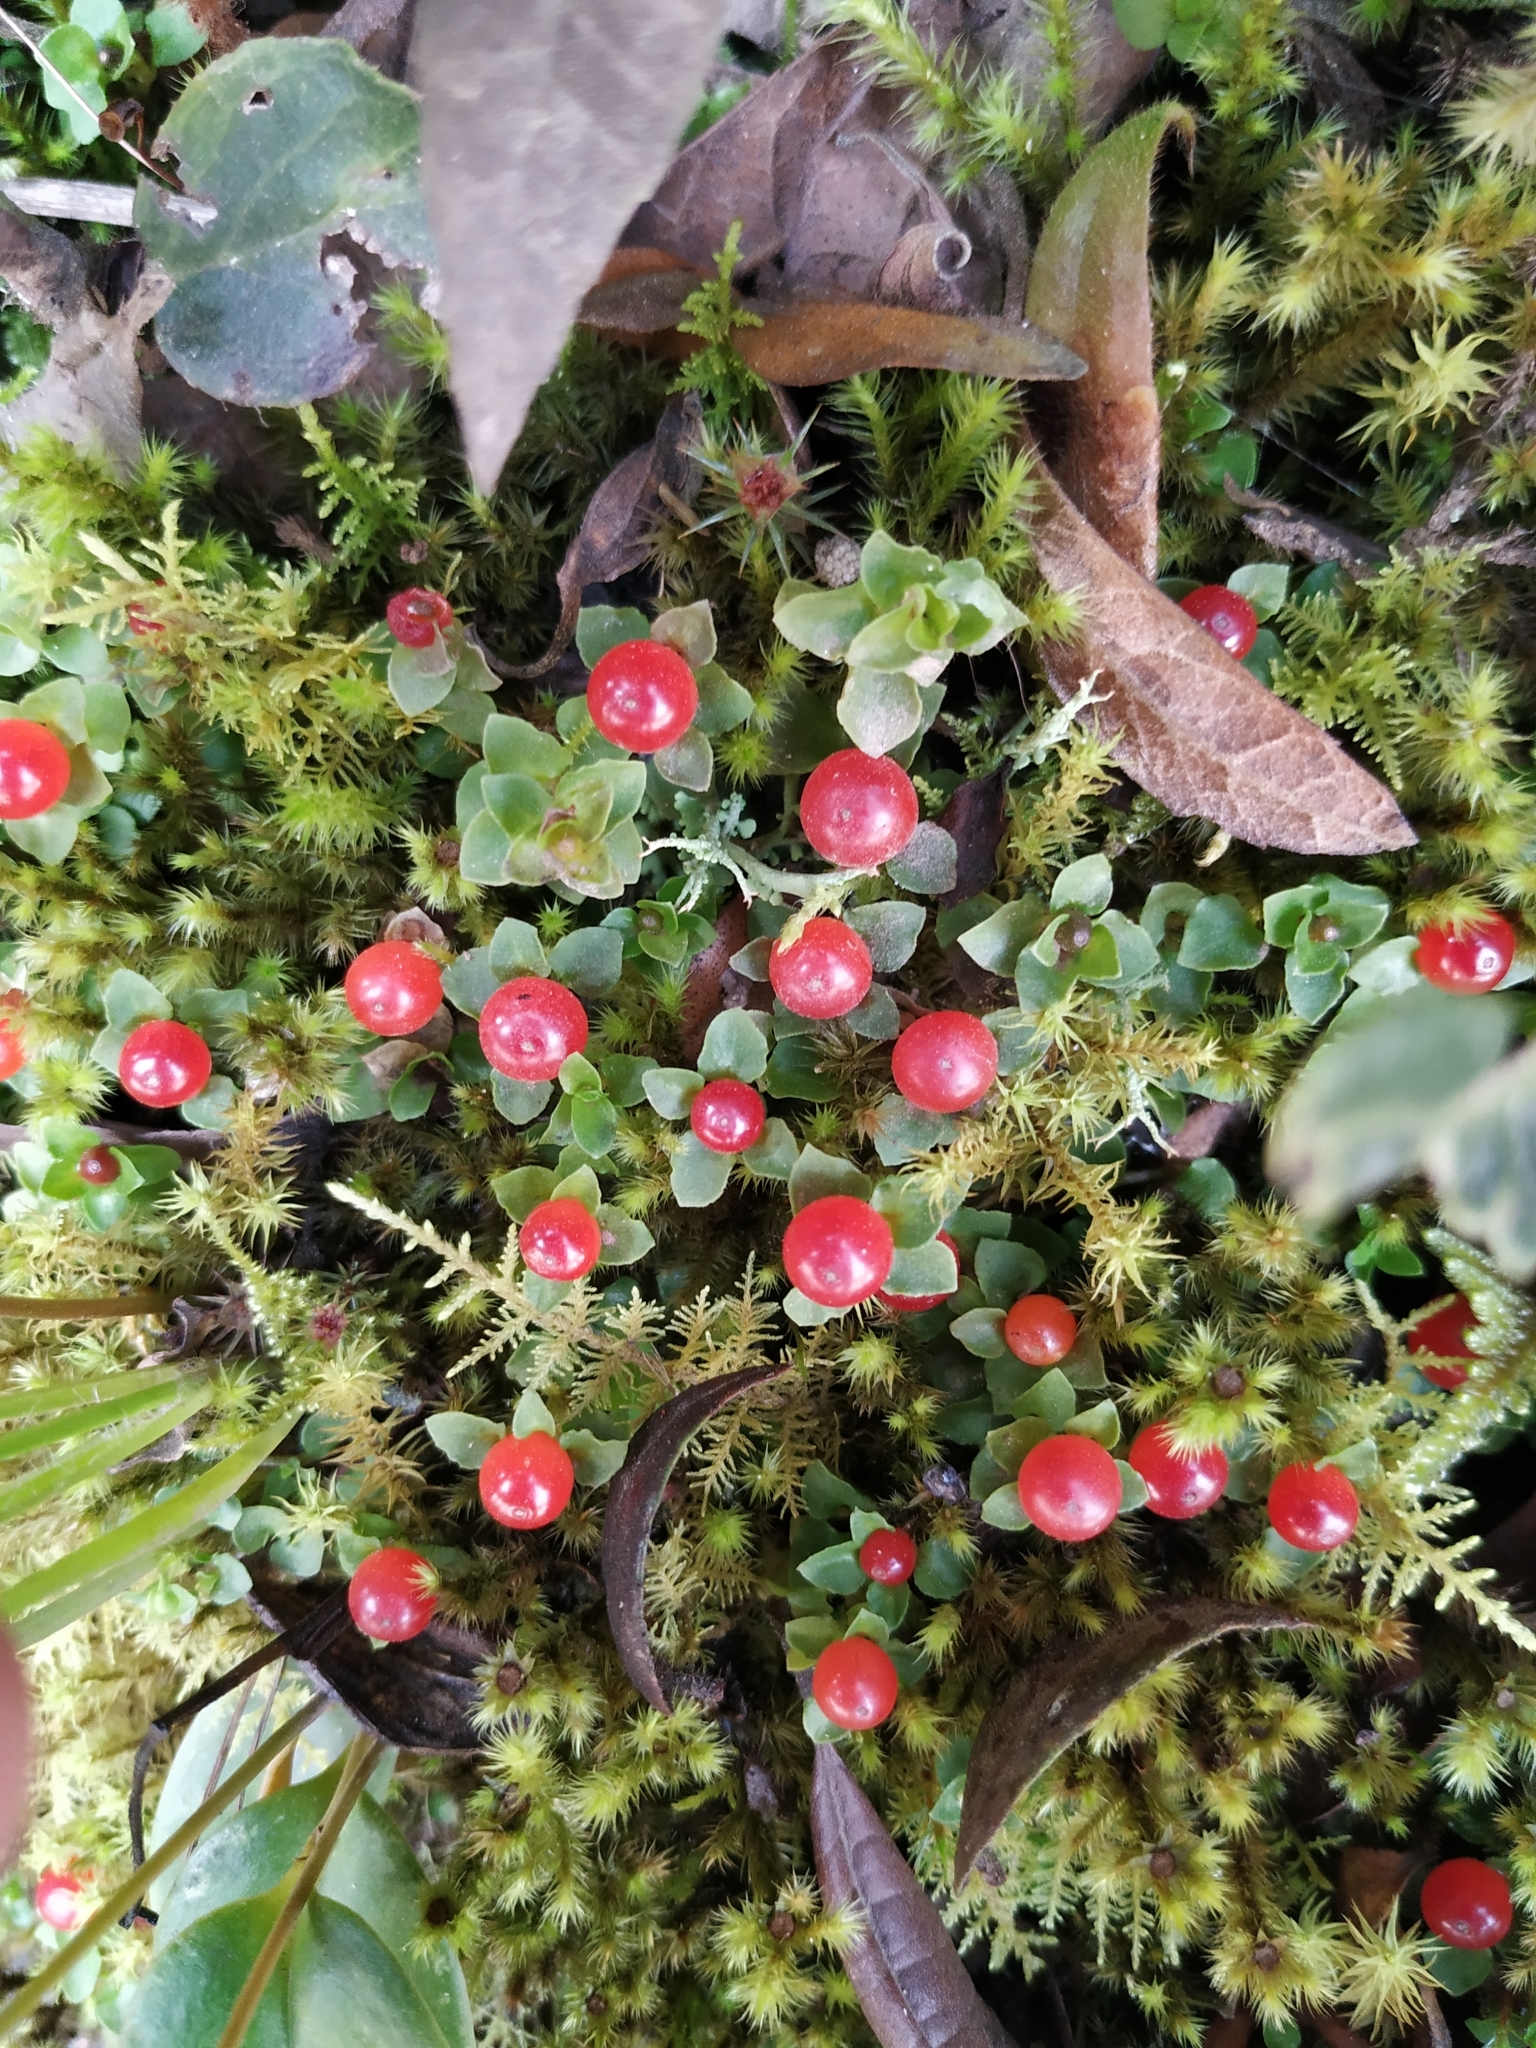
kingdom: Plantae
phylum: Tracheophyta
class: Magnoliopsida
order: Gentianales
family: Rubiaceae
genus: Nertera
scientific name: Nertera granadensis
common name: Beadplant
